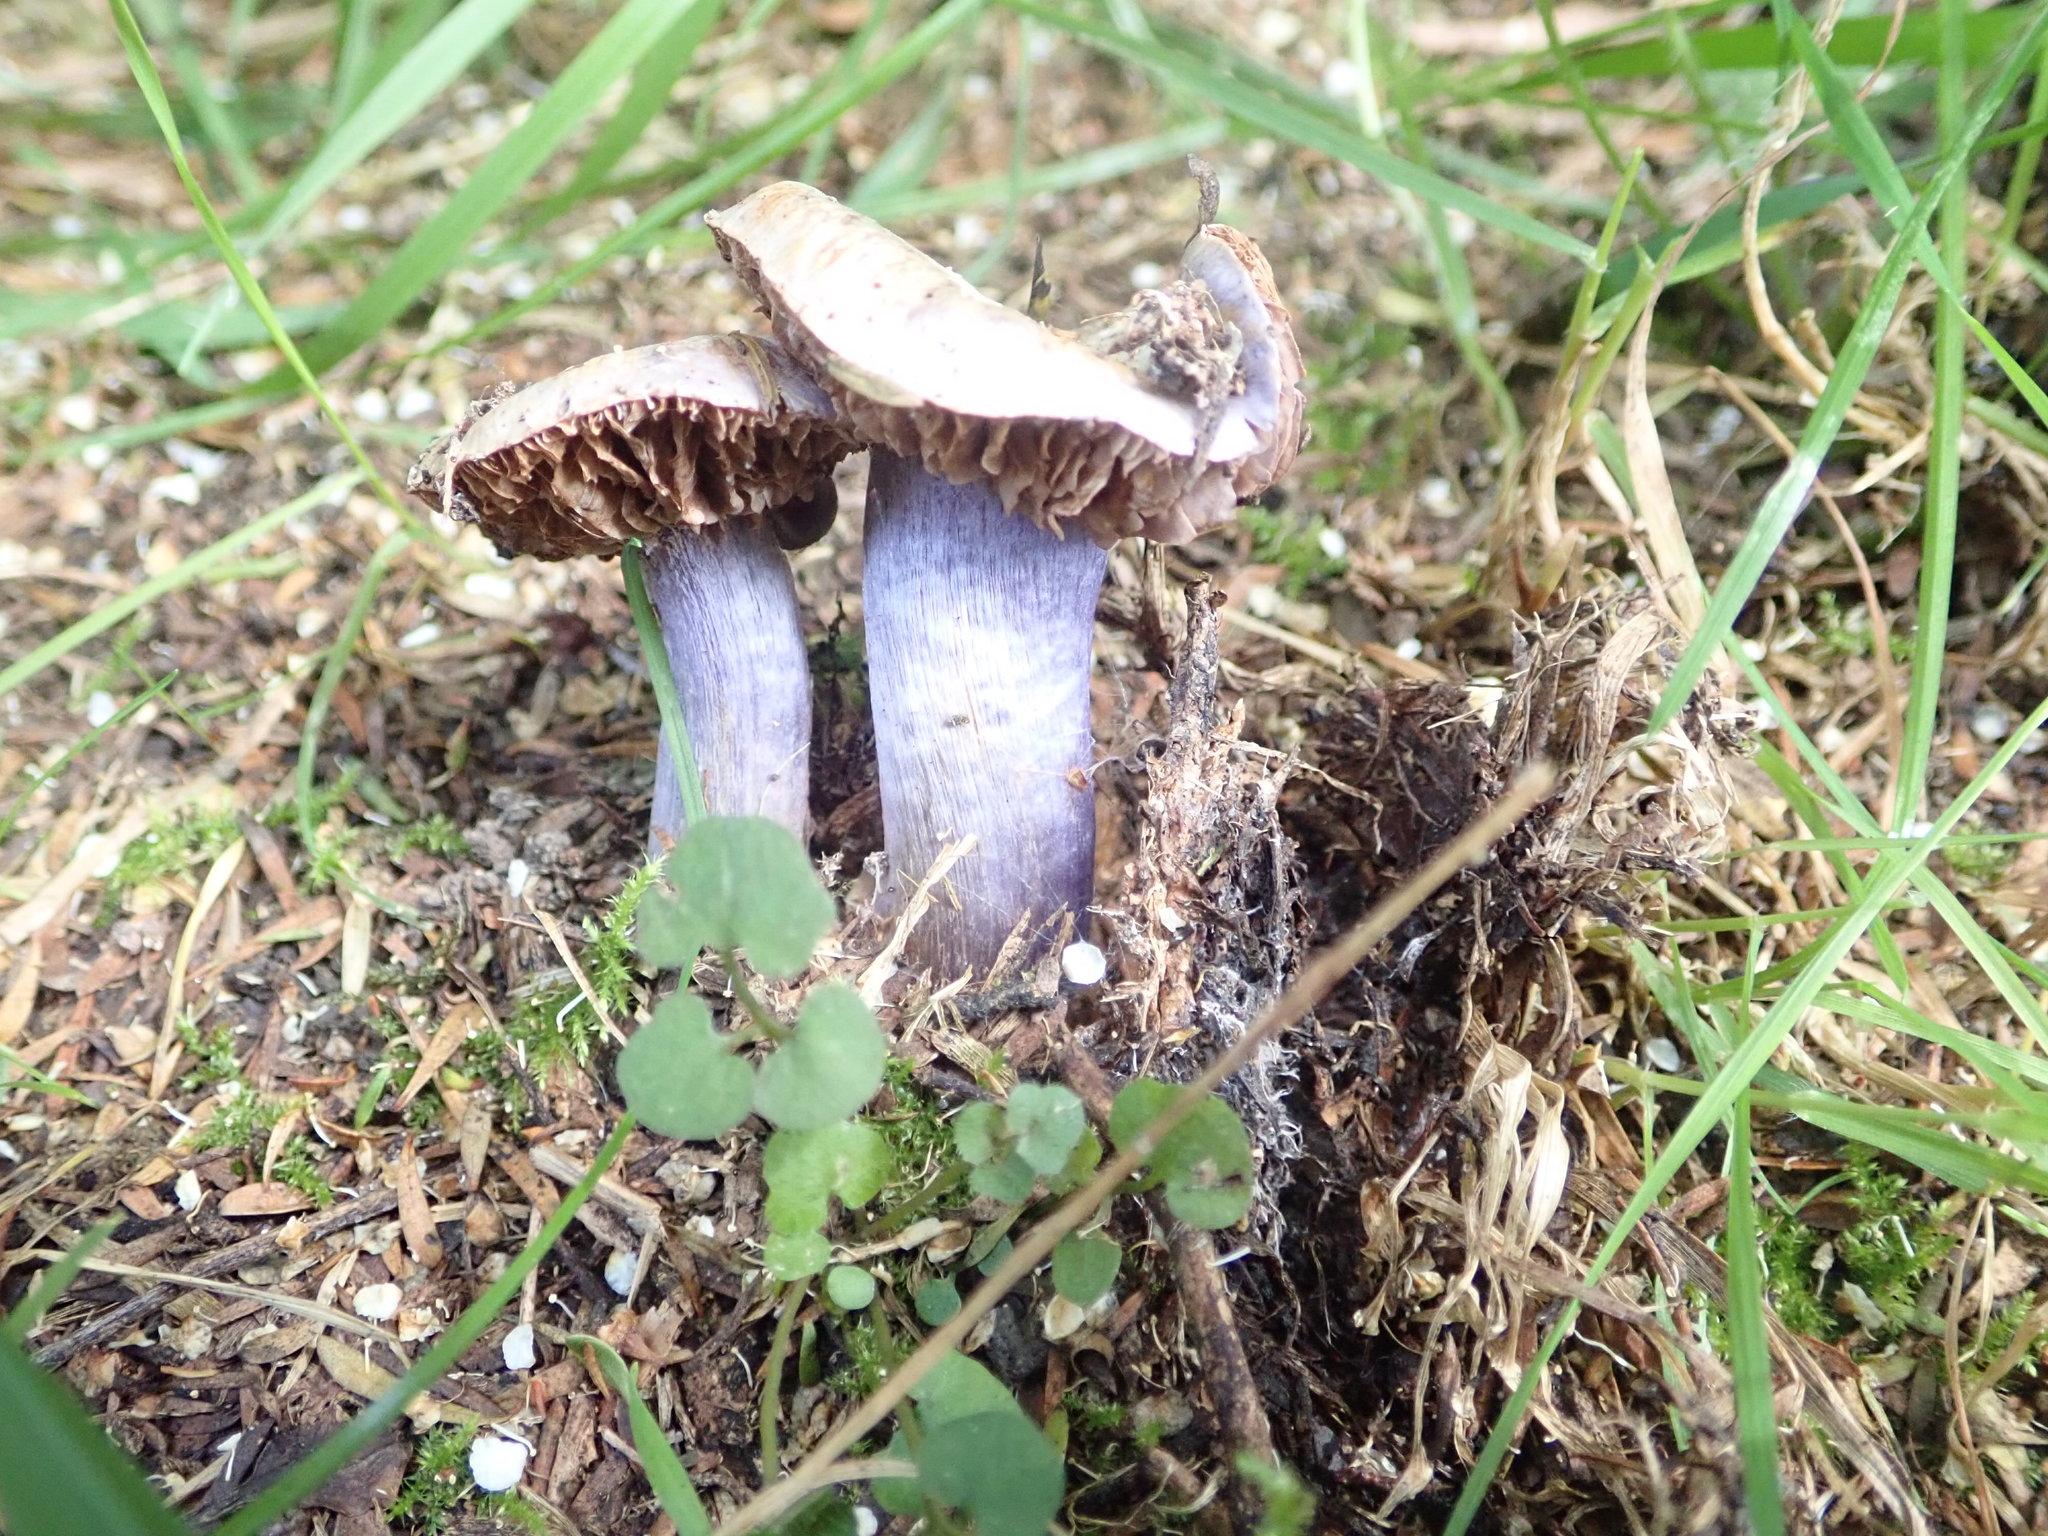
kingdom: Fungi
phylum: Basidiomycota
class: Agaricomycetes
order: Agaricales
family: Cortinariaceae
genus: Thaxterogaster
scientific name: Thaxterogaster austrovaginatus
